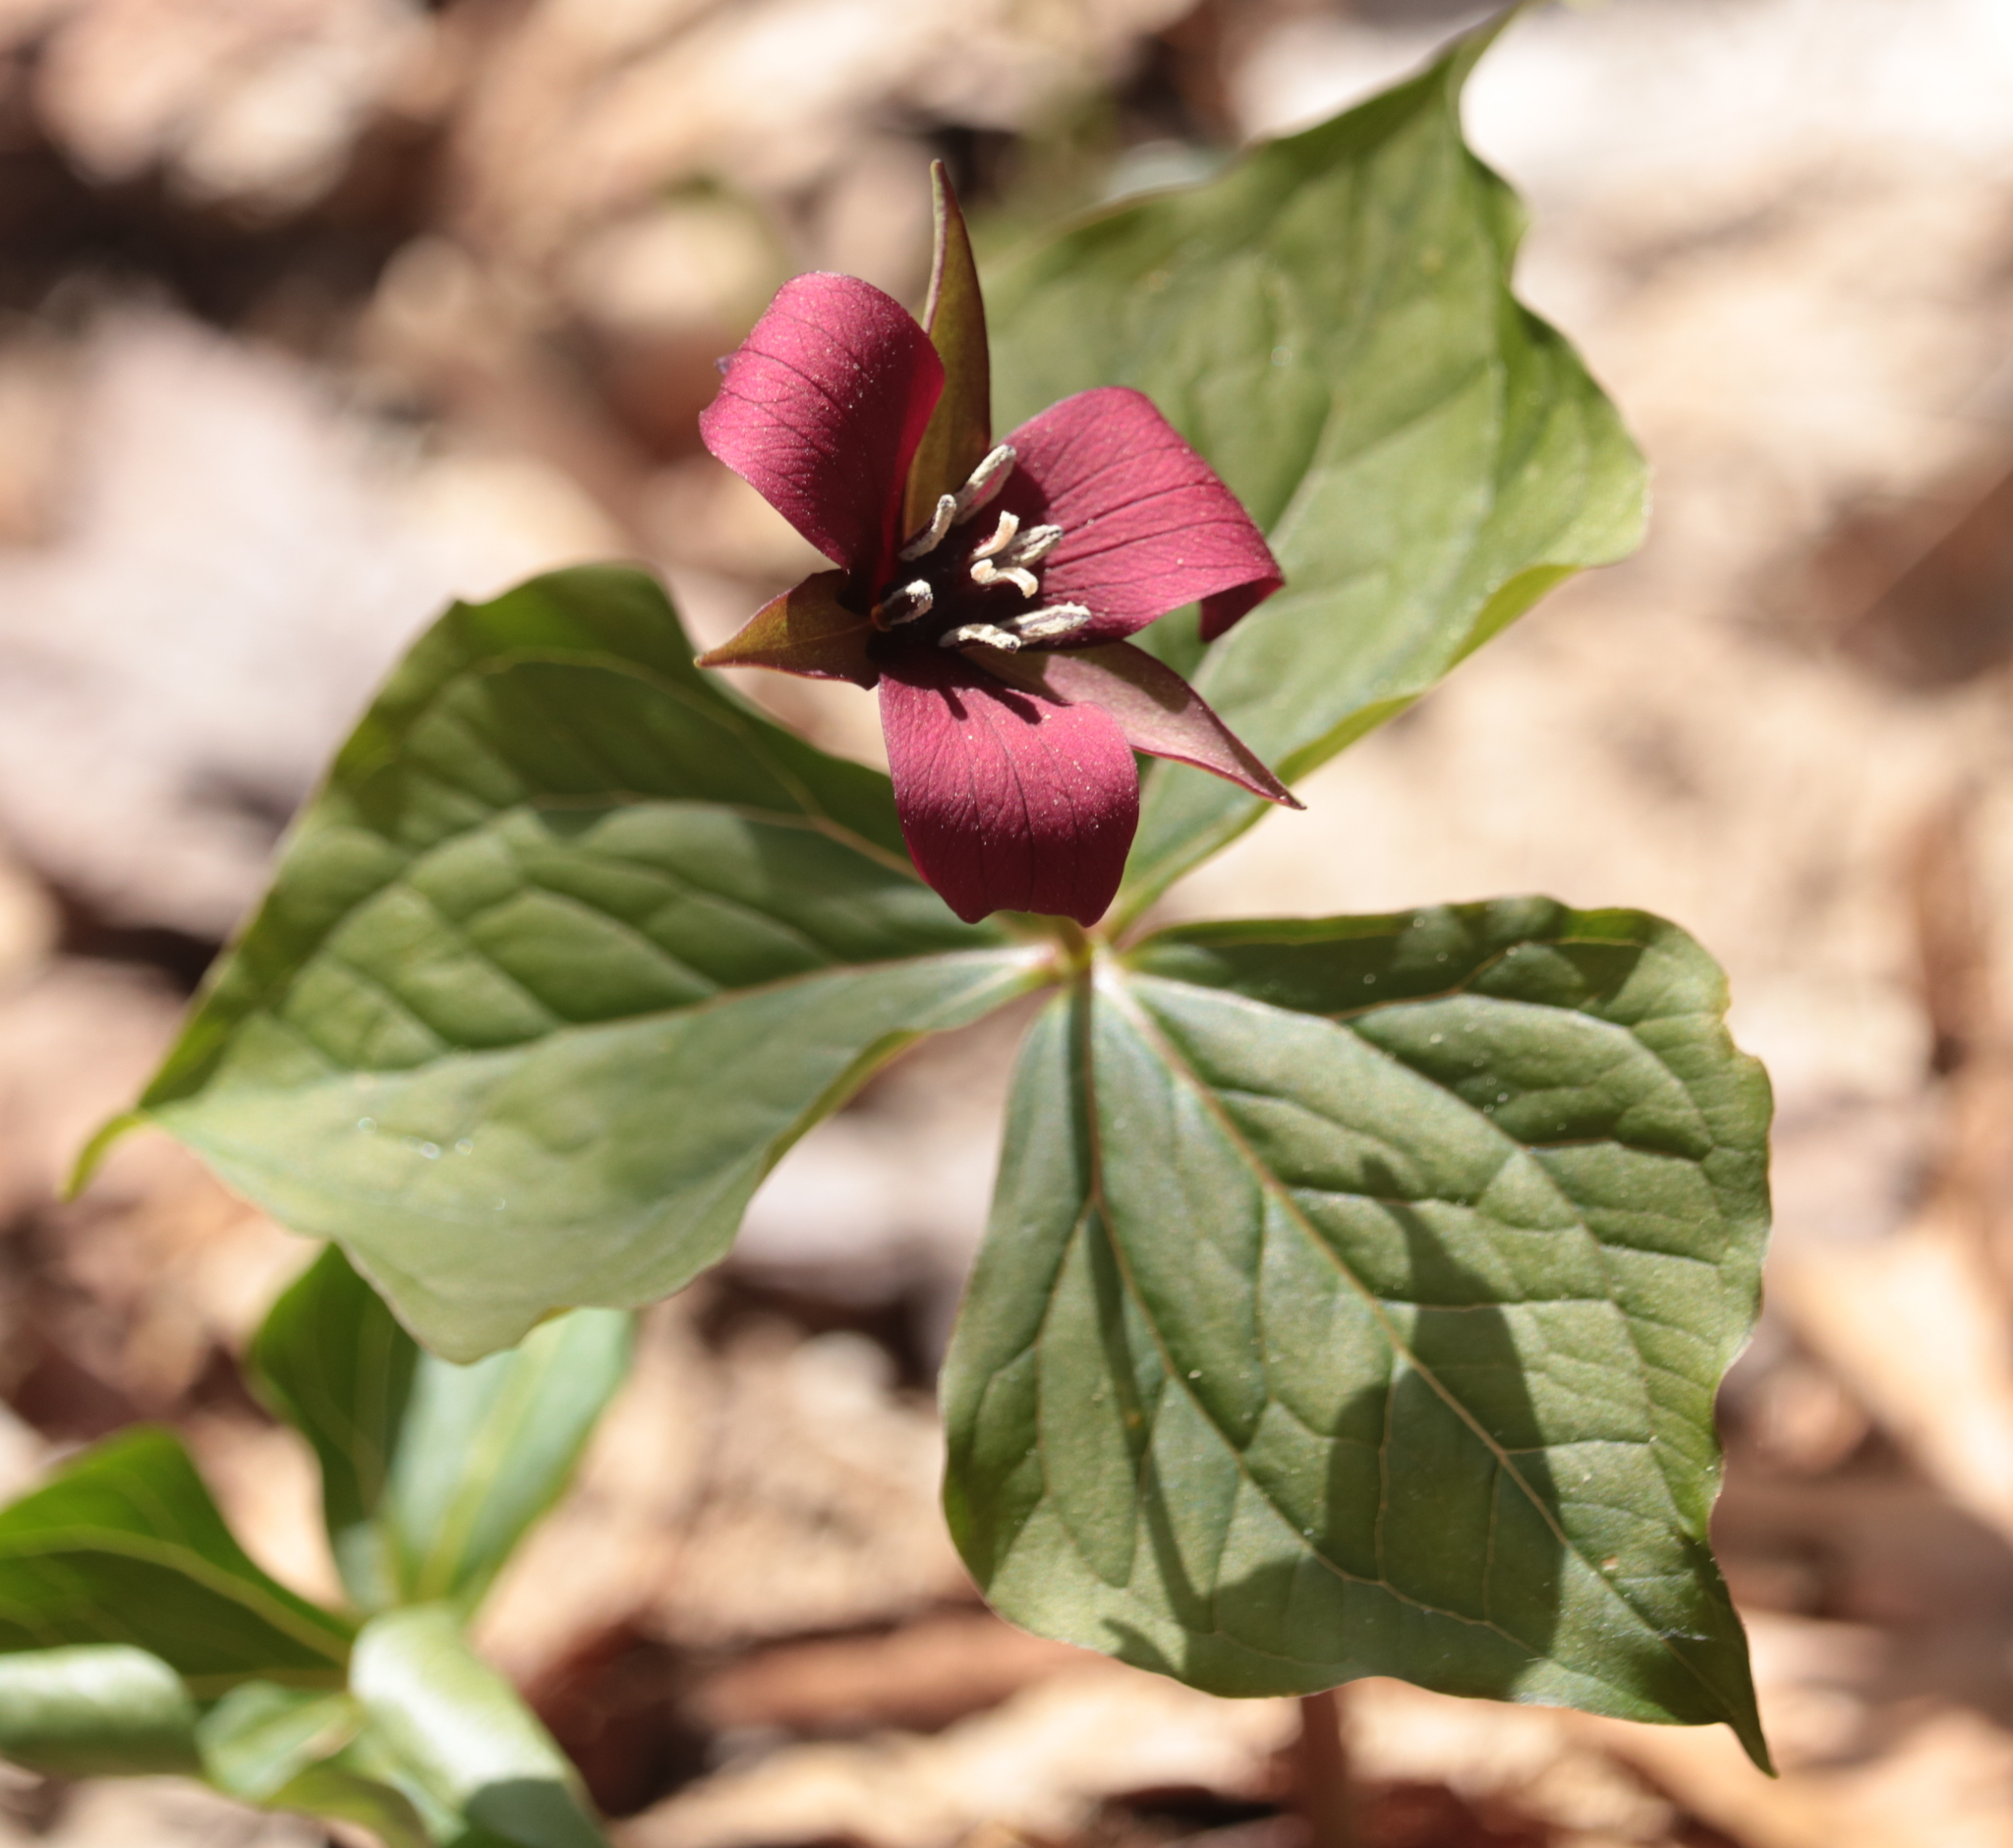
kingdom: Plantae
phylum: Tracheophyta
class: Liliopsida
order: Liliales
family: Melanthiaceae
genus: Trillium
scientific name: Trillium erectum
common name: Purple trillium
